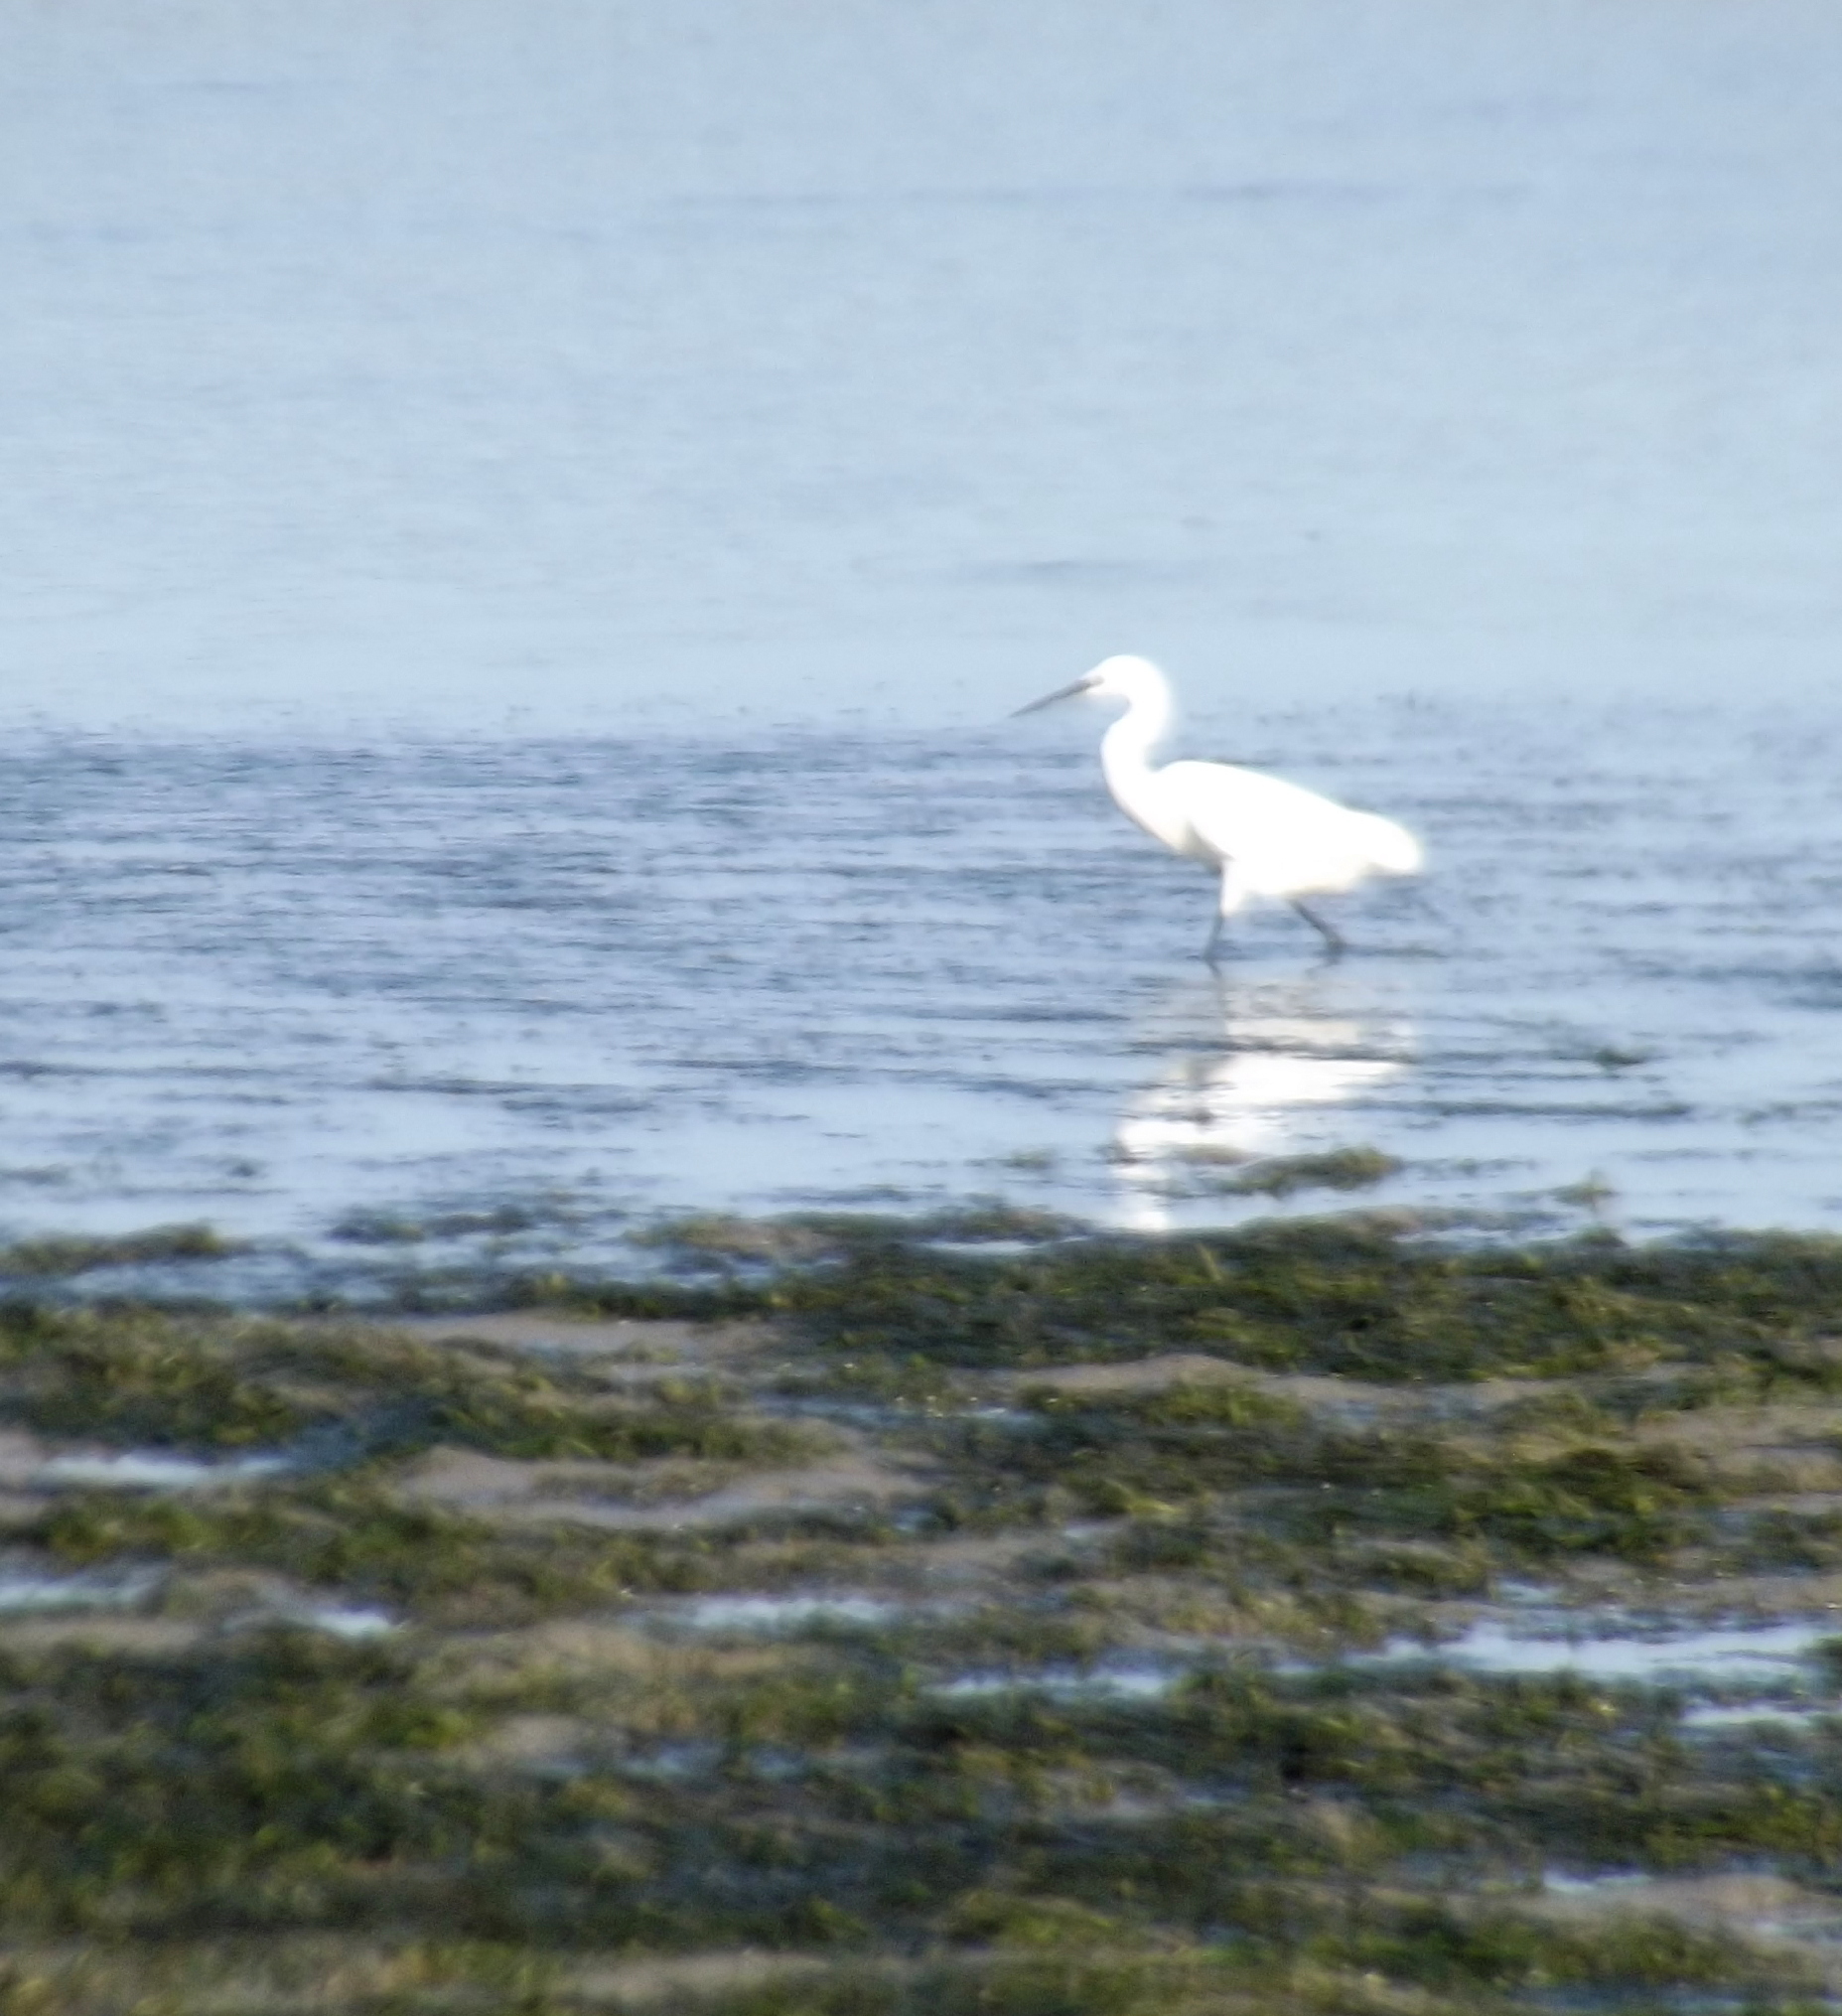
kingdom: Animalia
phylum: Chordata
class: Aves
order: Pelecaniformes
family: Ardeidae
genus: Egretta
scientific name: Egretta garzetta
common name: Little egret
